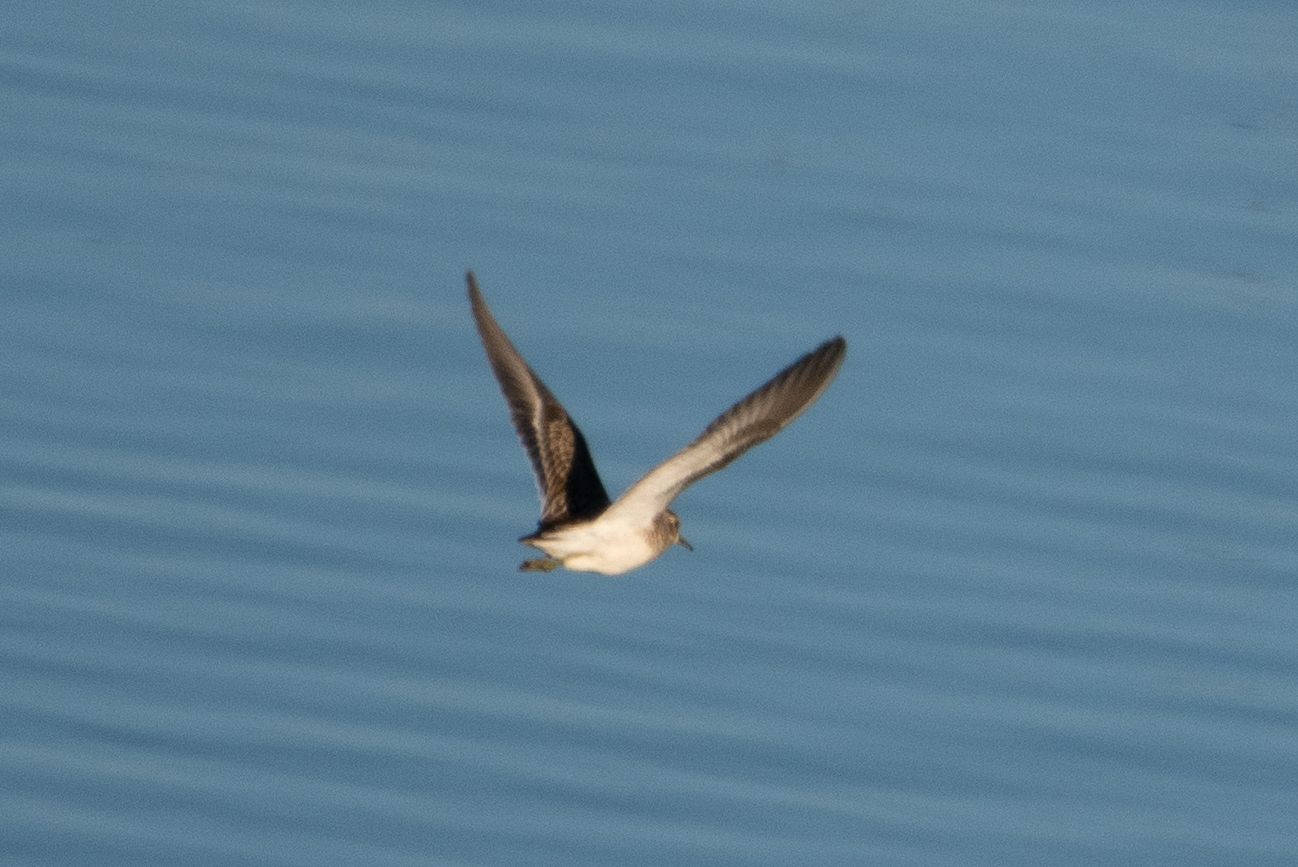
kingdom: Animalia
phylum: Chordata
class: Aves
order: Charadriiformes
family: Scolopacidae
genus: Calidris
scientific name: Calidris minutilla
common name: Least sandpiper
